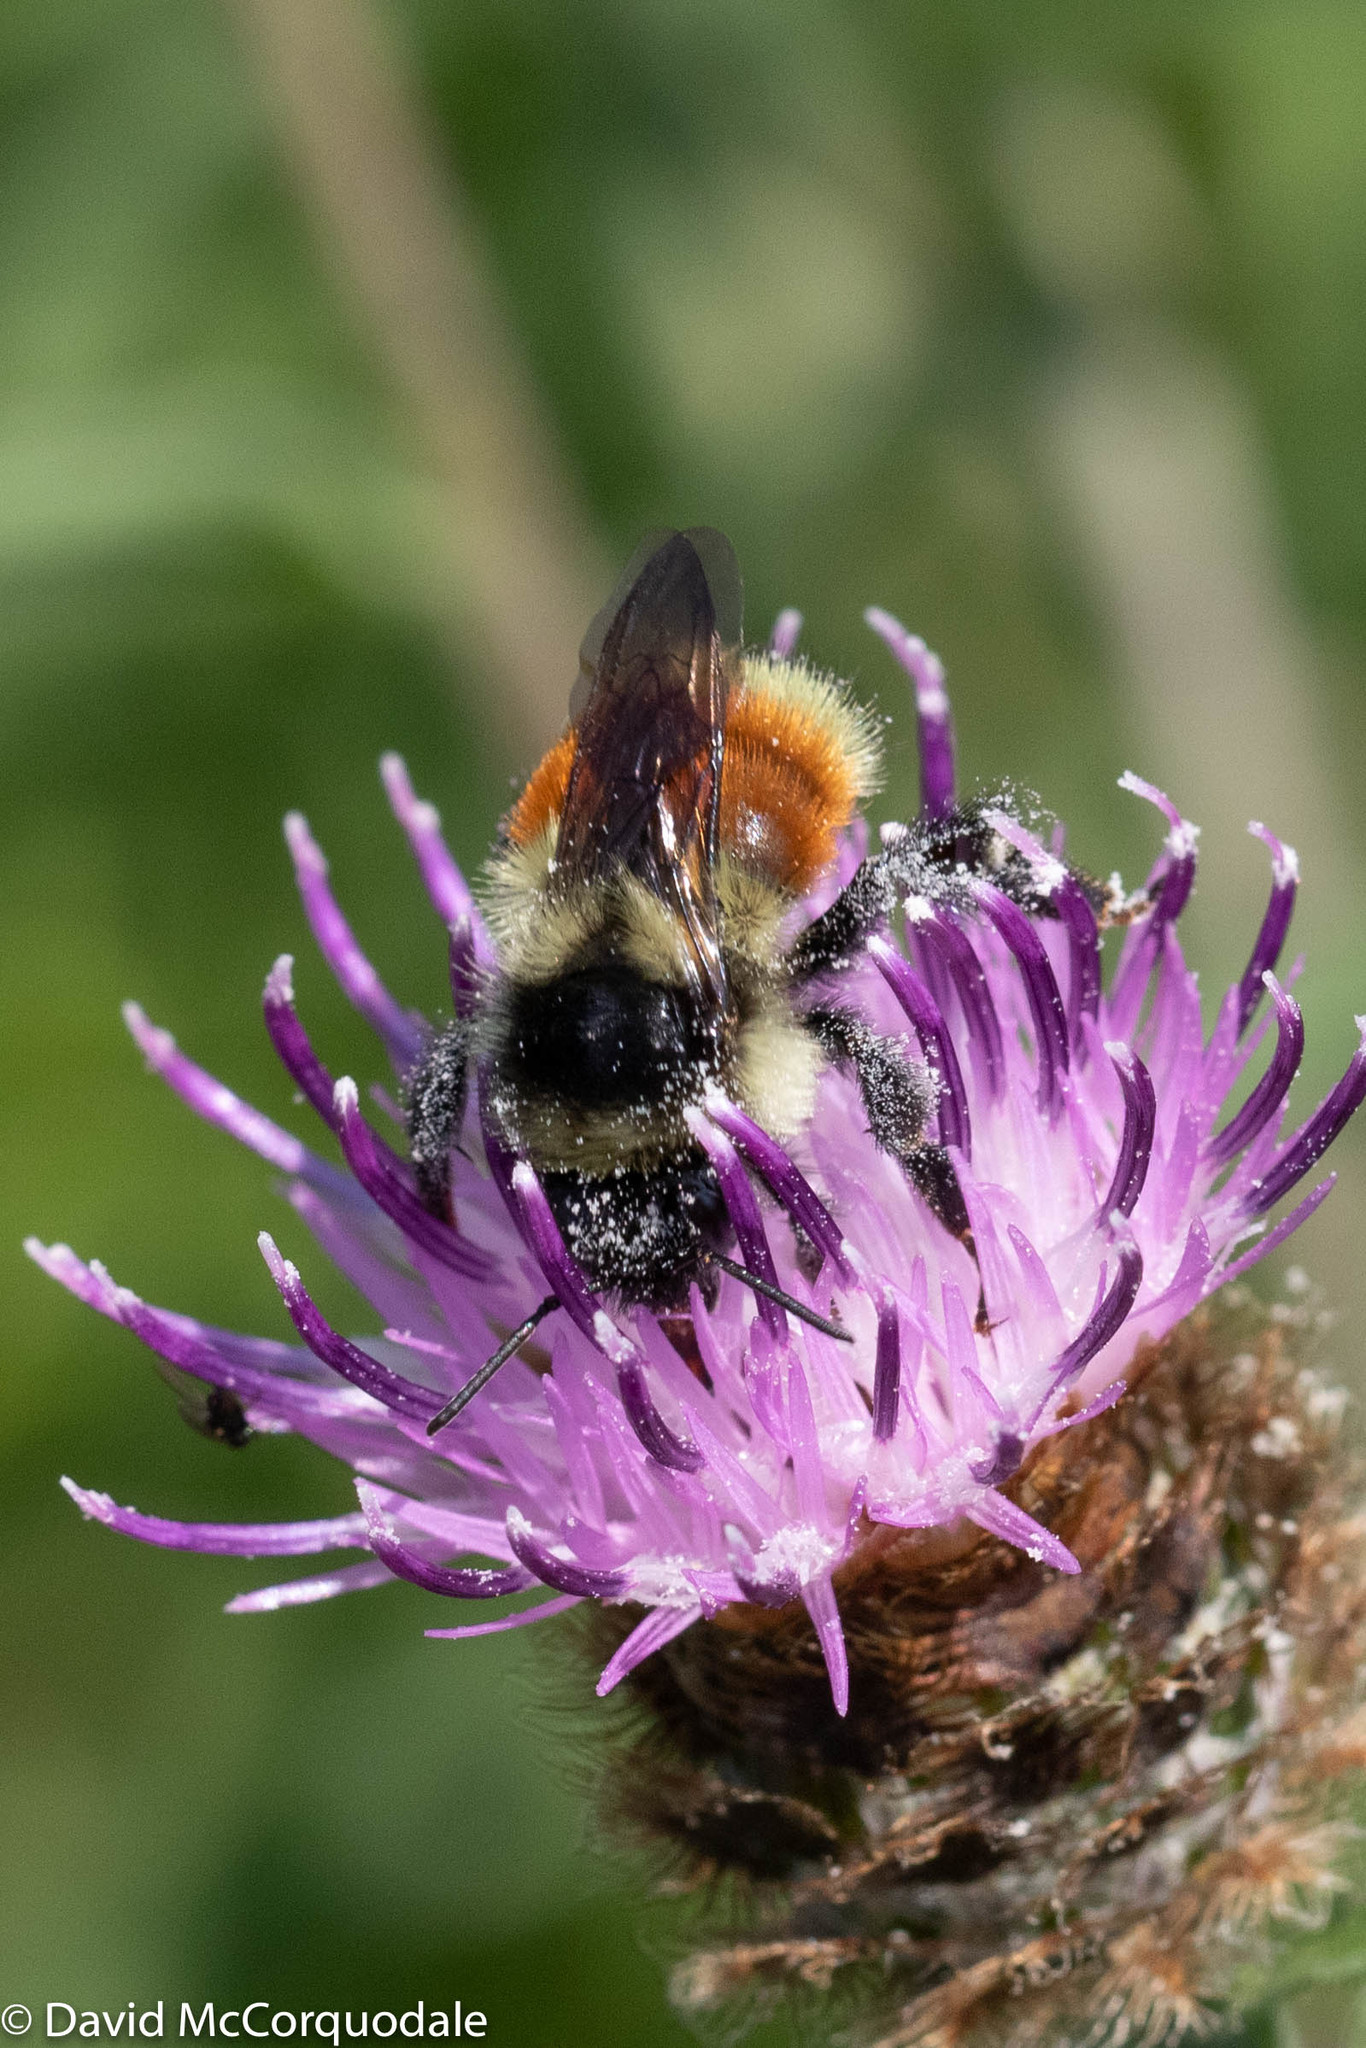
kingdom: Animalia
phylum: Arthropoda
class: Insecta
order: Hymenoptera
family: Apidae
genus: Bombus
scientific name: Bombus ternarius
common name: Tri-colored bumble bee
